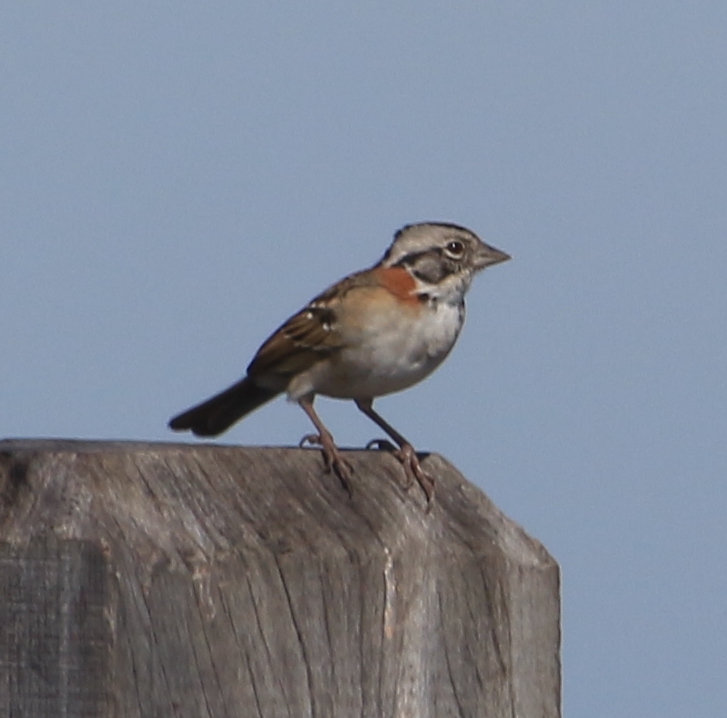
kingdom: Animalia
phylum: Chordata
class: Aves
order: Passeriformes
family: Passerellidae
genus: Zonotrichia
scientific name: Zonotrichia capensis
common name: Rufous-collared sparrow
